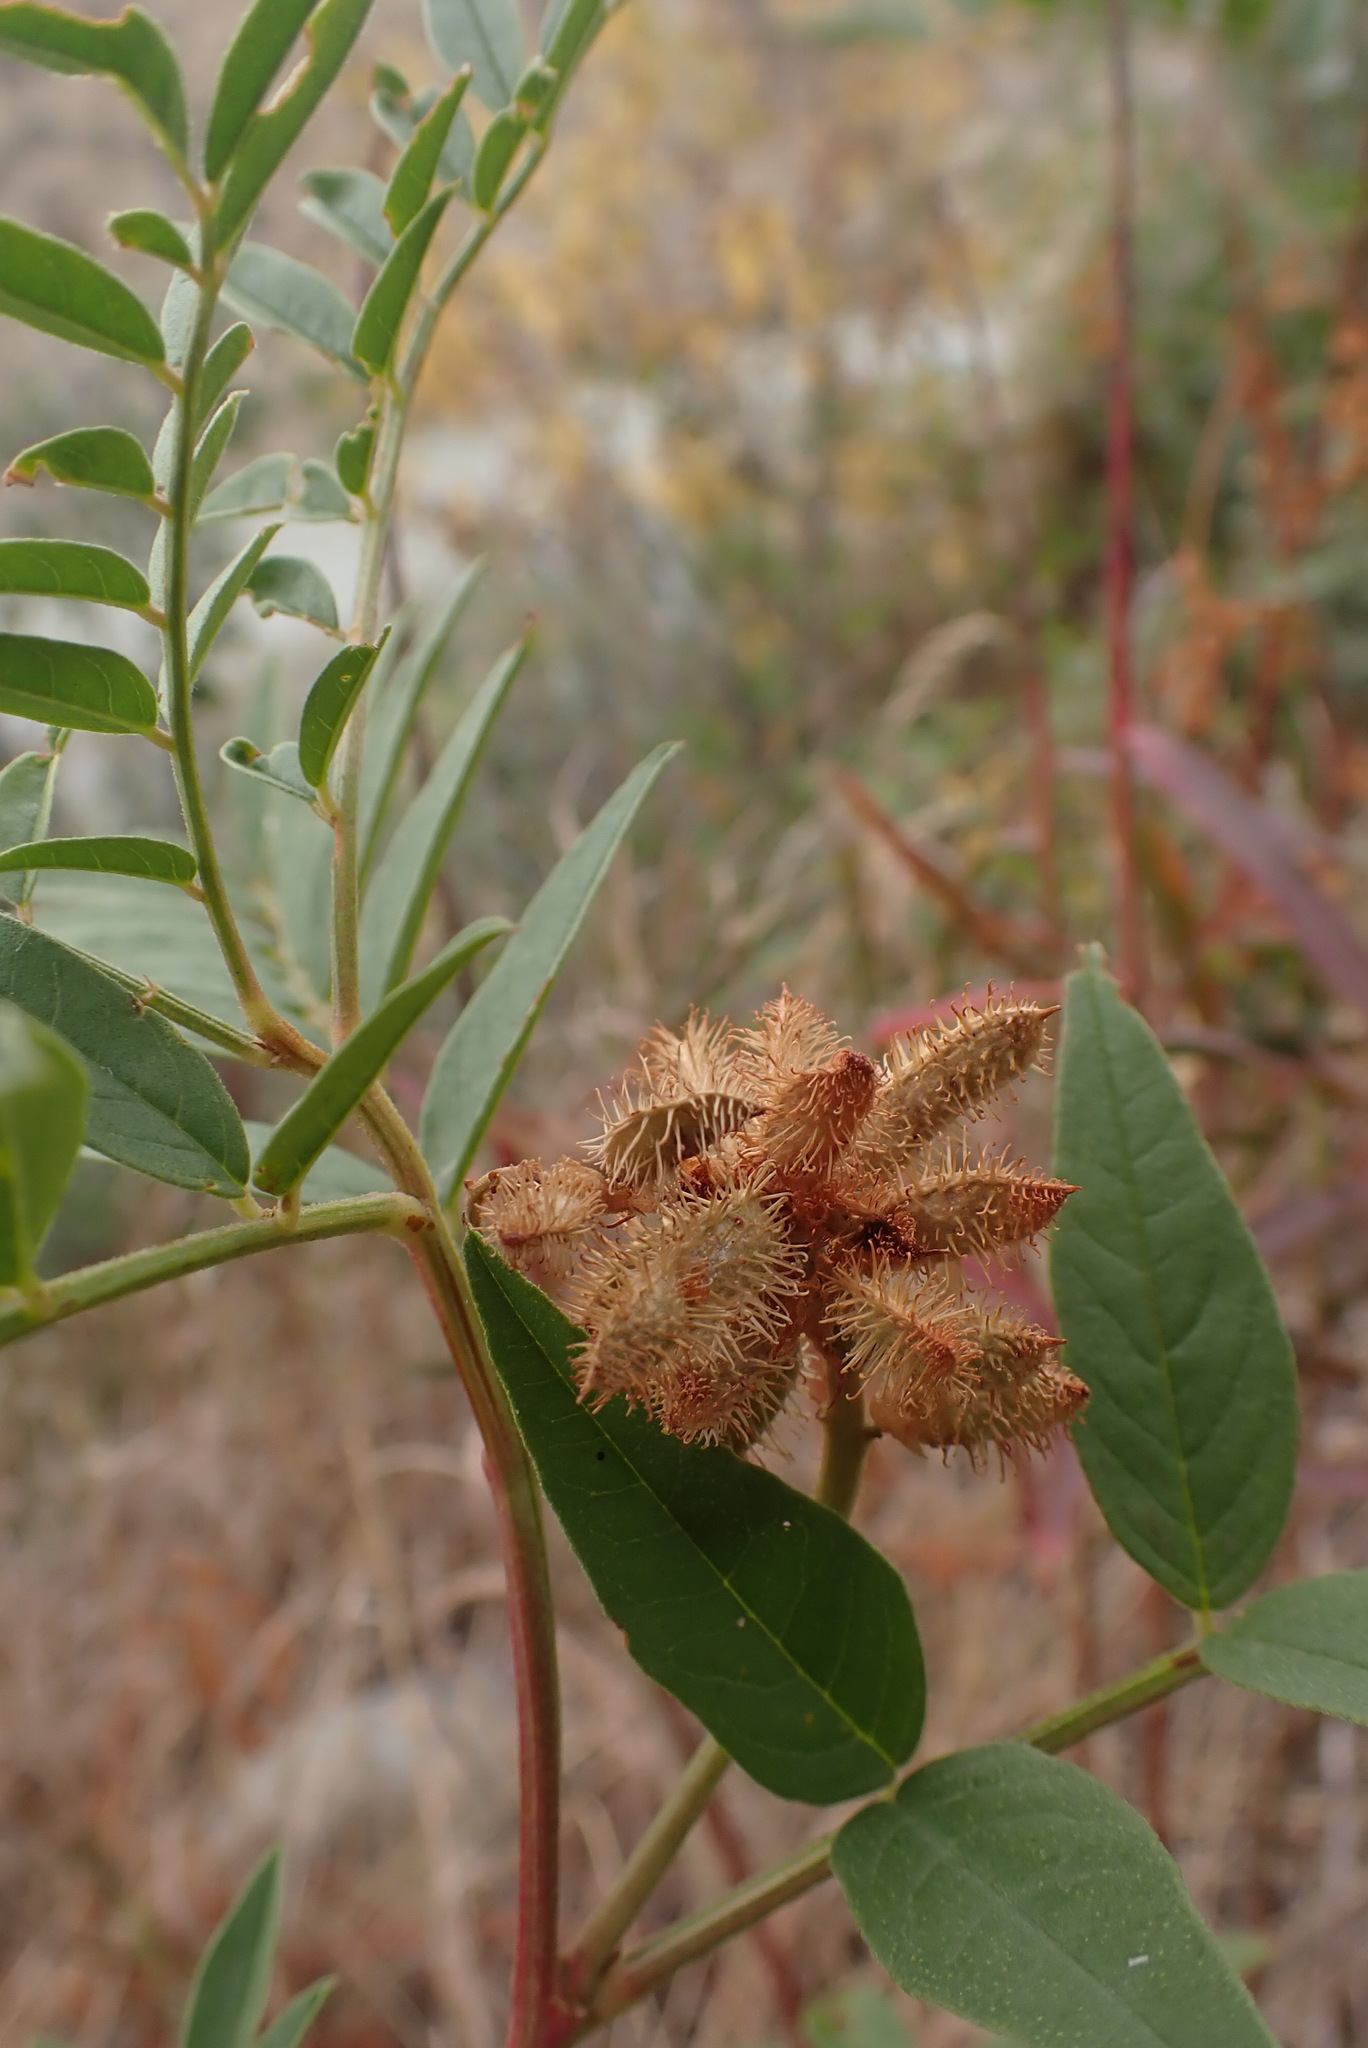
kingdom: Plantae
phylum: Tracheophyta
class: Magnoliopsida
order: Fabales
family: Fabaceae
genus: Glycyrrhiza
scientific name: Glycyrrhiza lepidota
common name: American liquorice
